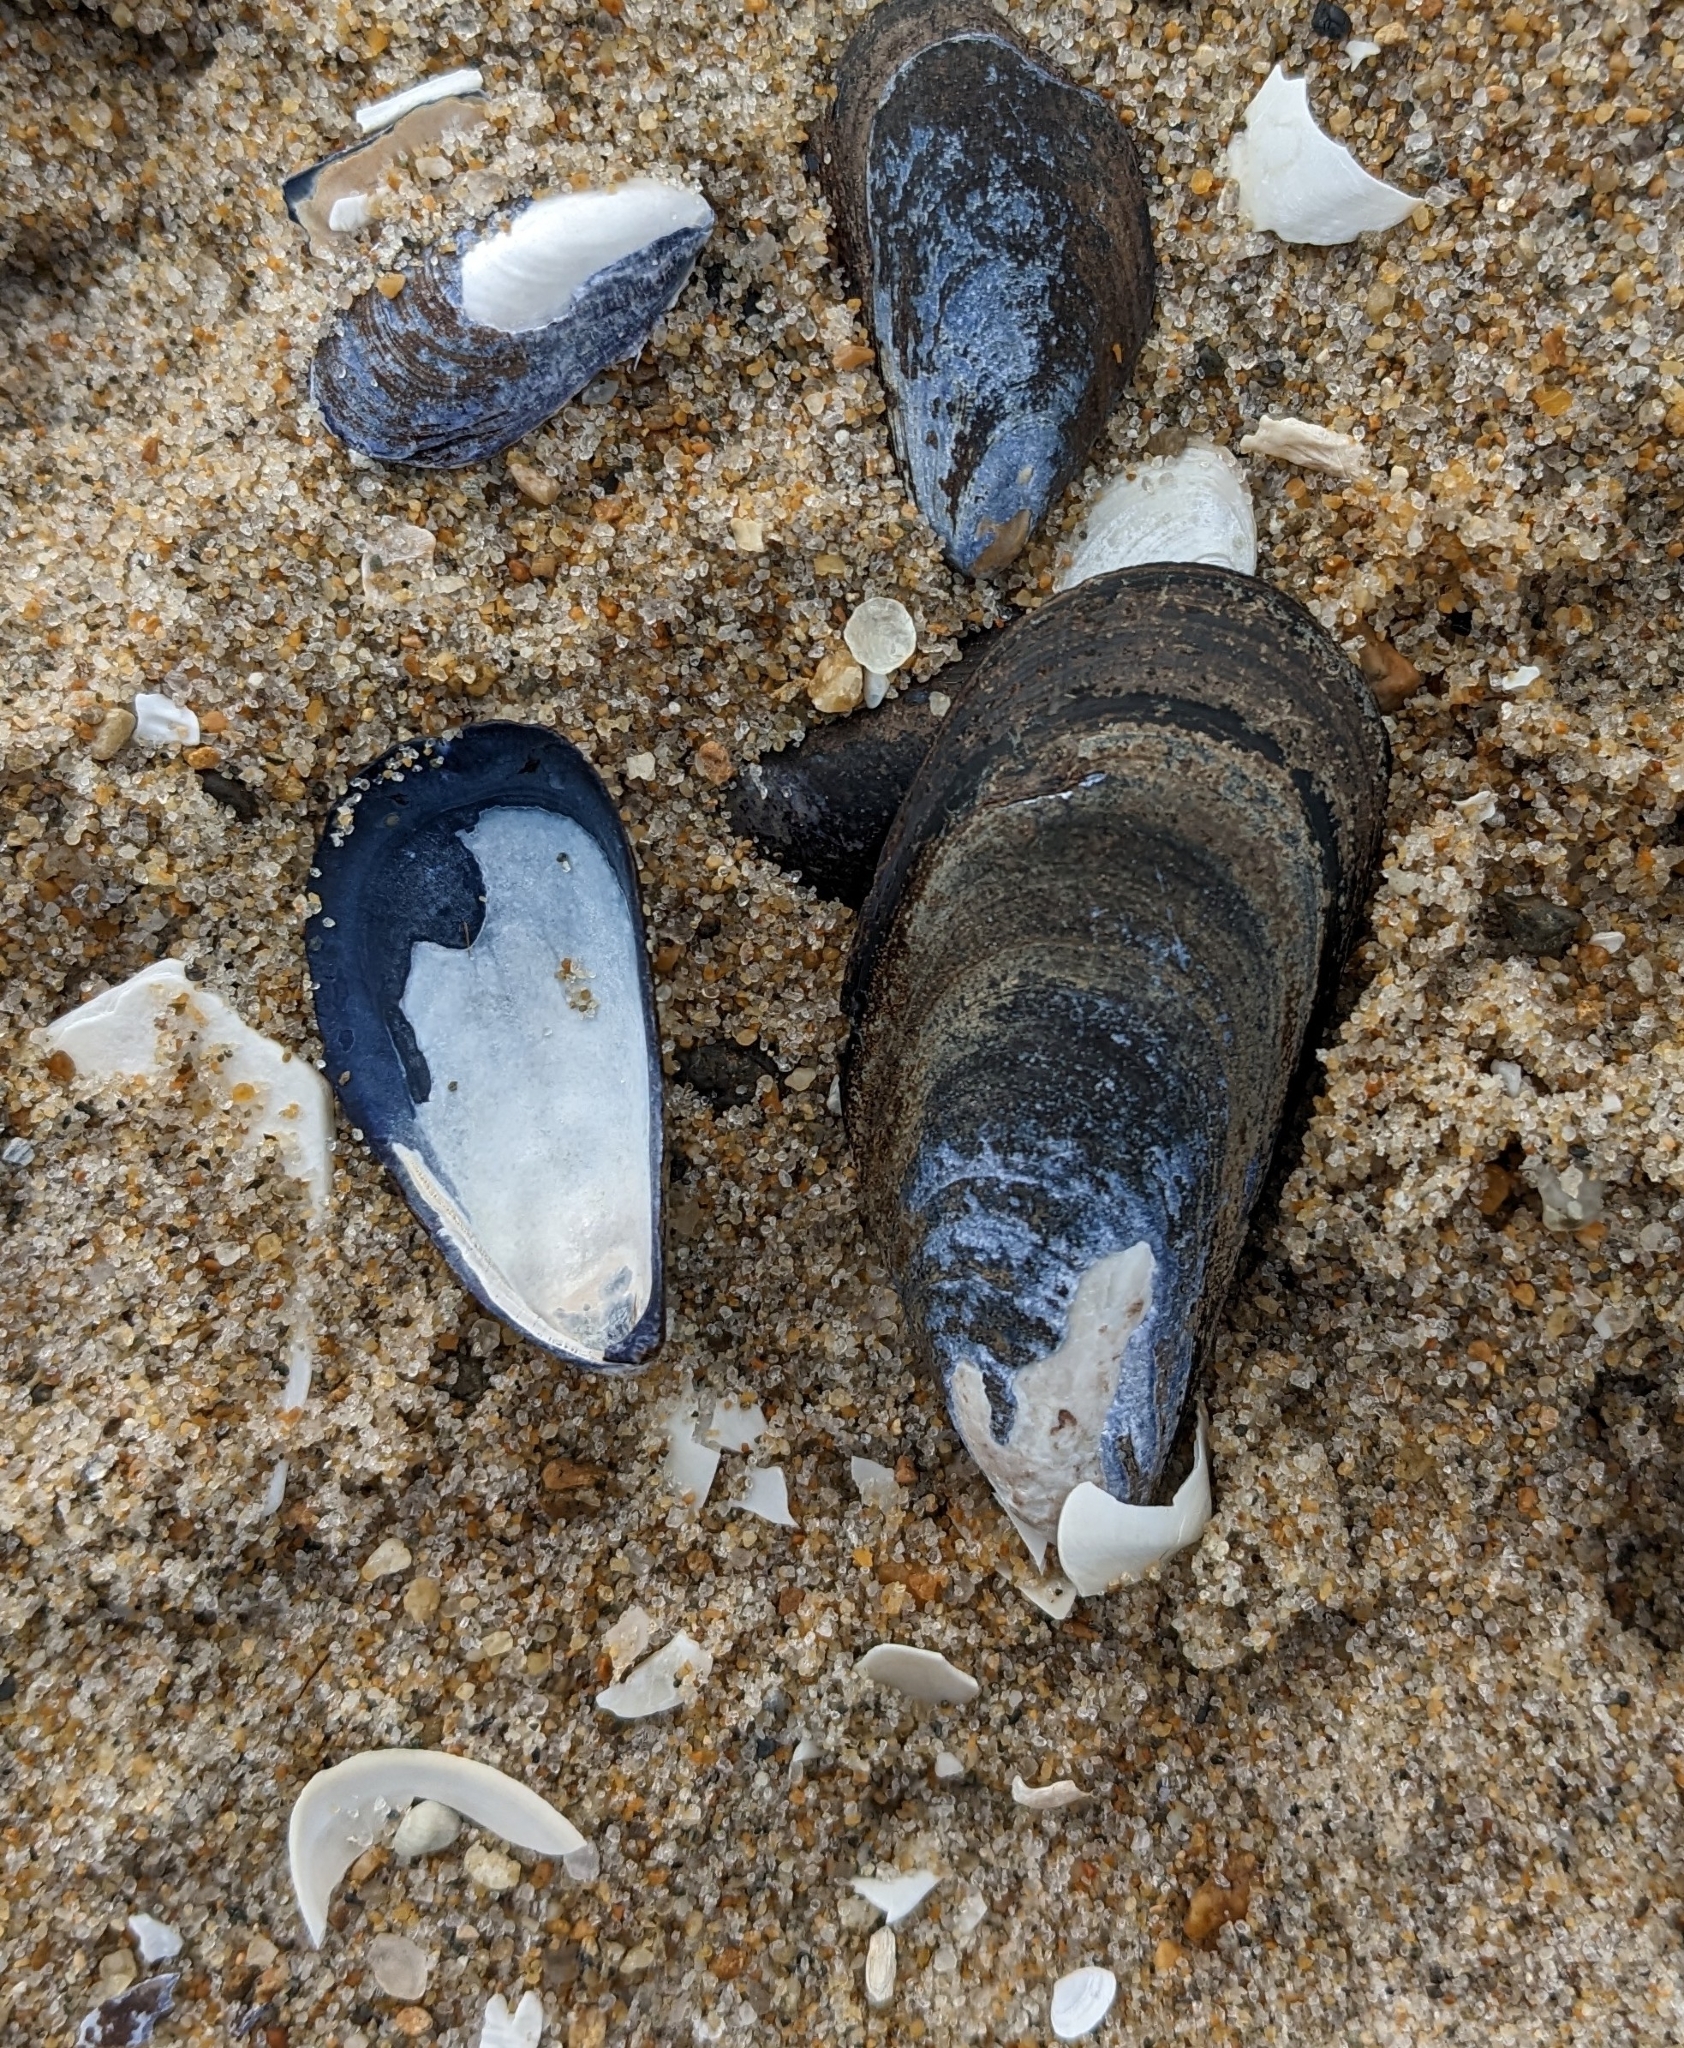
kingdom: Animalia
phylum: Mollusca
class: Bivalvia
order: Mytilida
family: Mytilidae
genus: Mytilus
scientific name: Mytilus edulis
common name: Blue mussel
